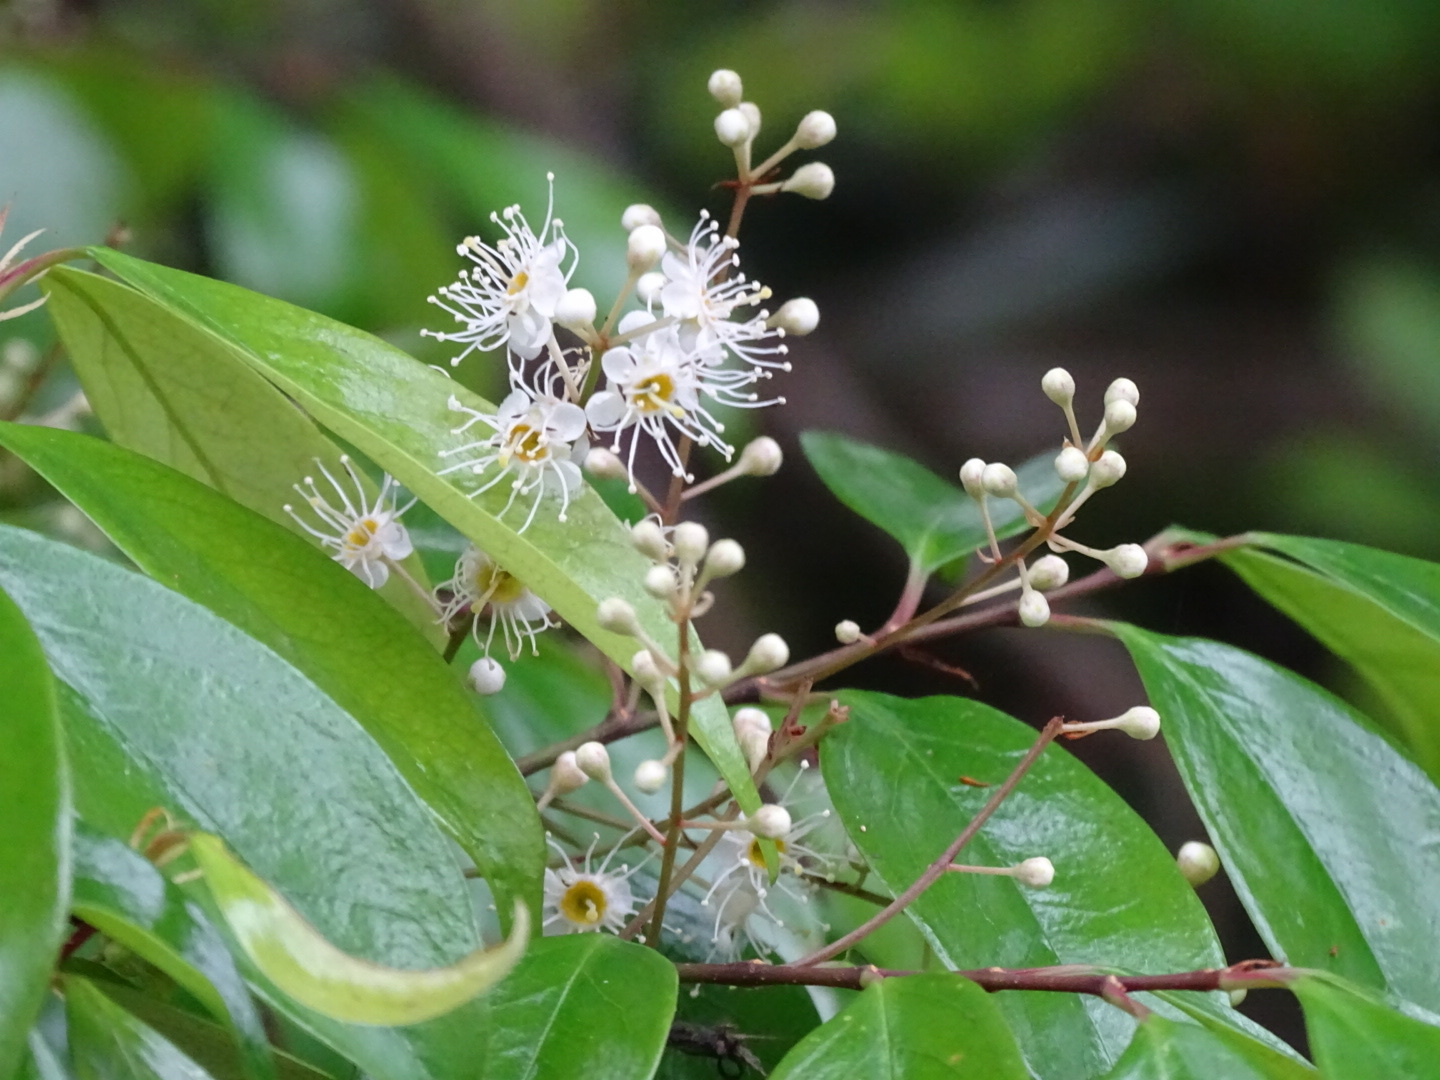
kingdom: Plantae
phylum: Tracheophyta
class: Magnoliopsida
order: Rosales
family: Rosaceae
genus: Prunus
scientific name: Prunus phaeosticta
